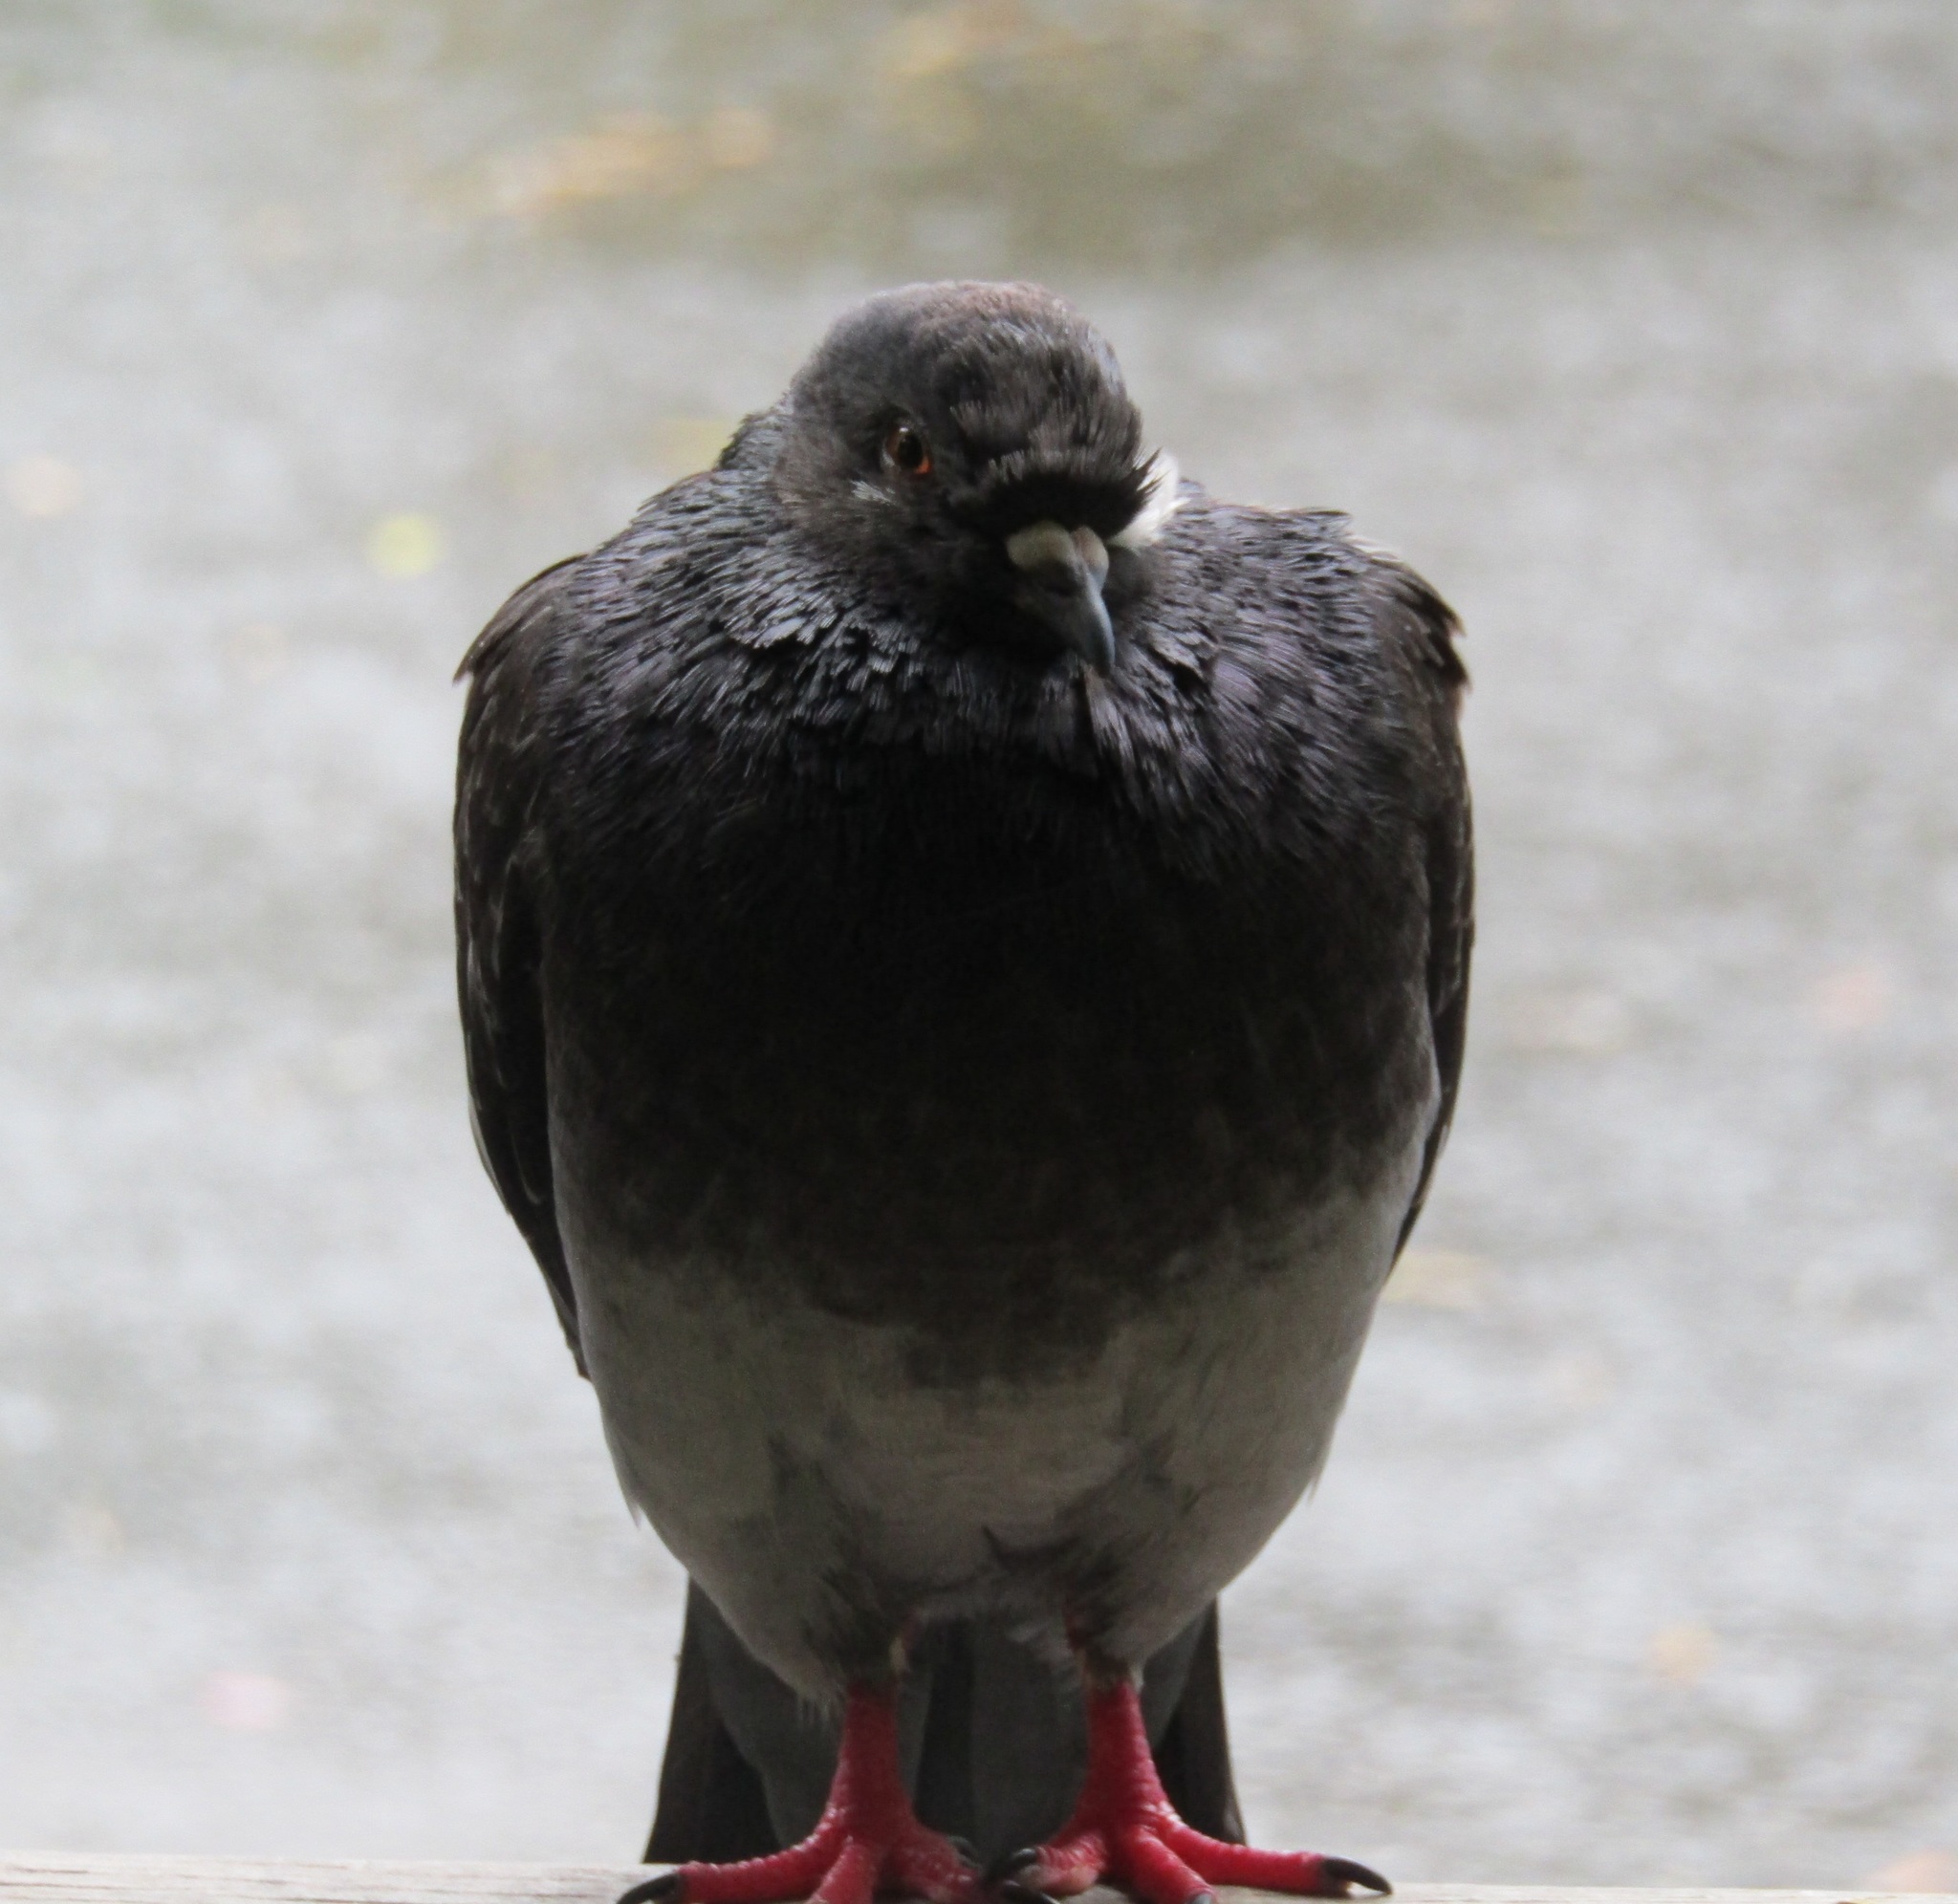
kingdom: Animalia
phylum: Chordata
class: Aves
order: Columbiformes
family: Columbidae
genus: Columba
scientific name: Columba livia
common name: Rock pigeon
